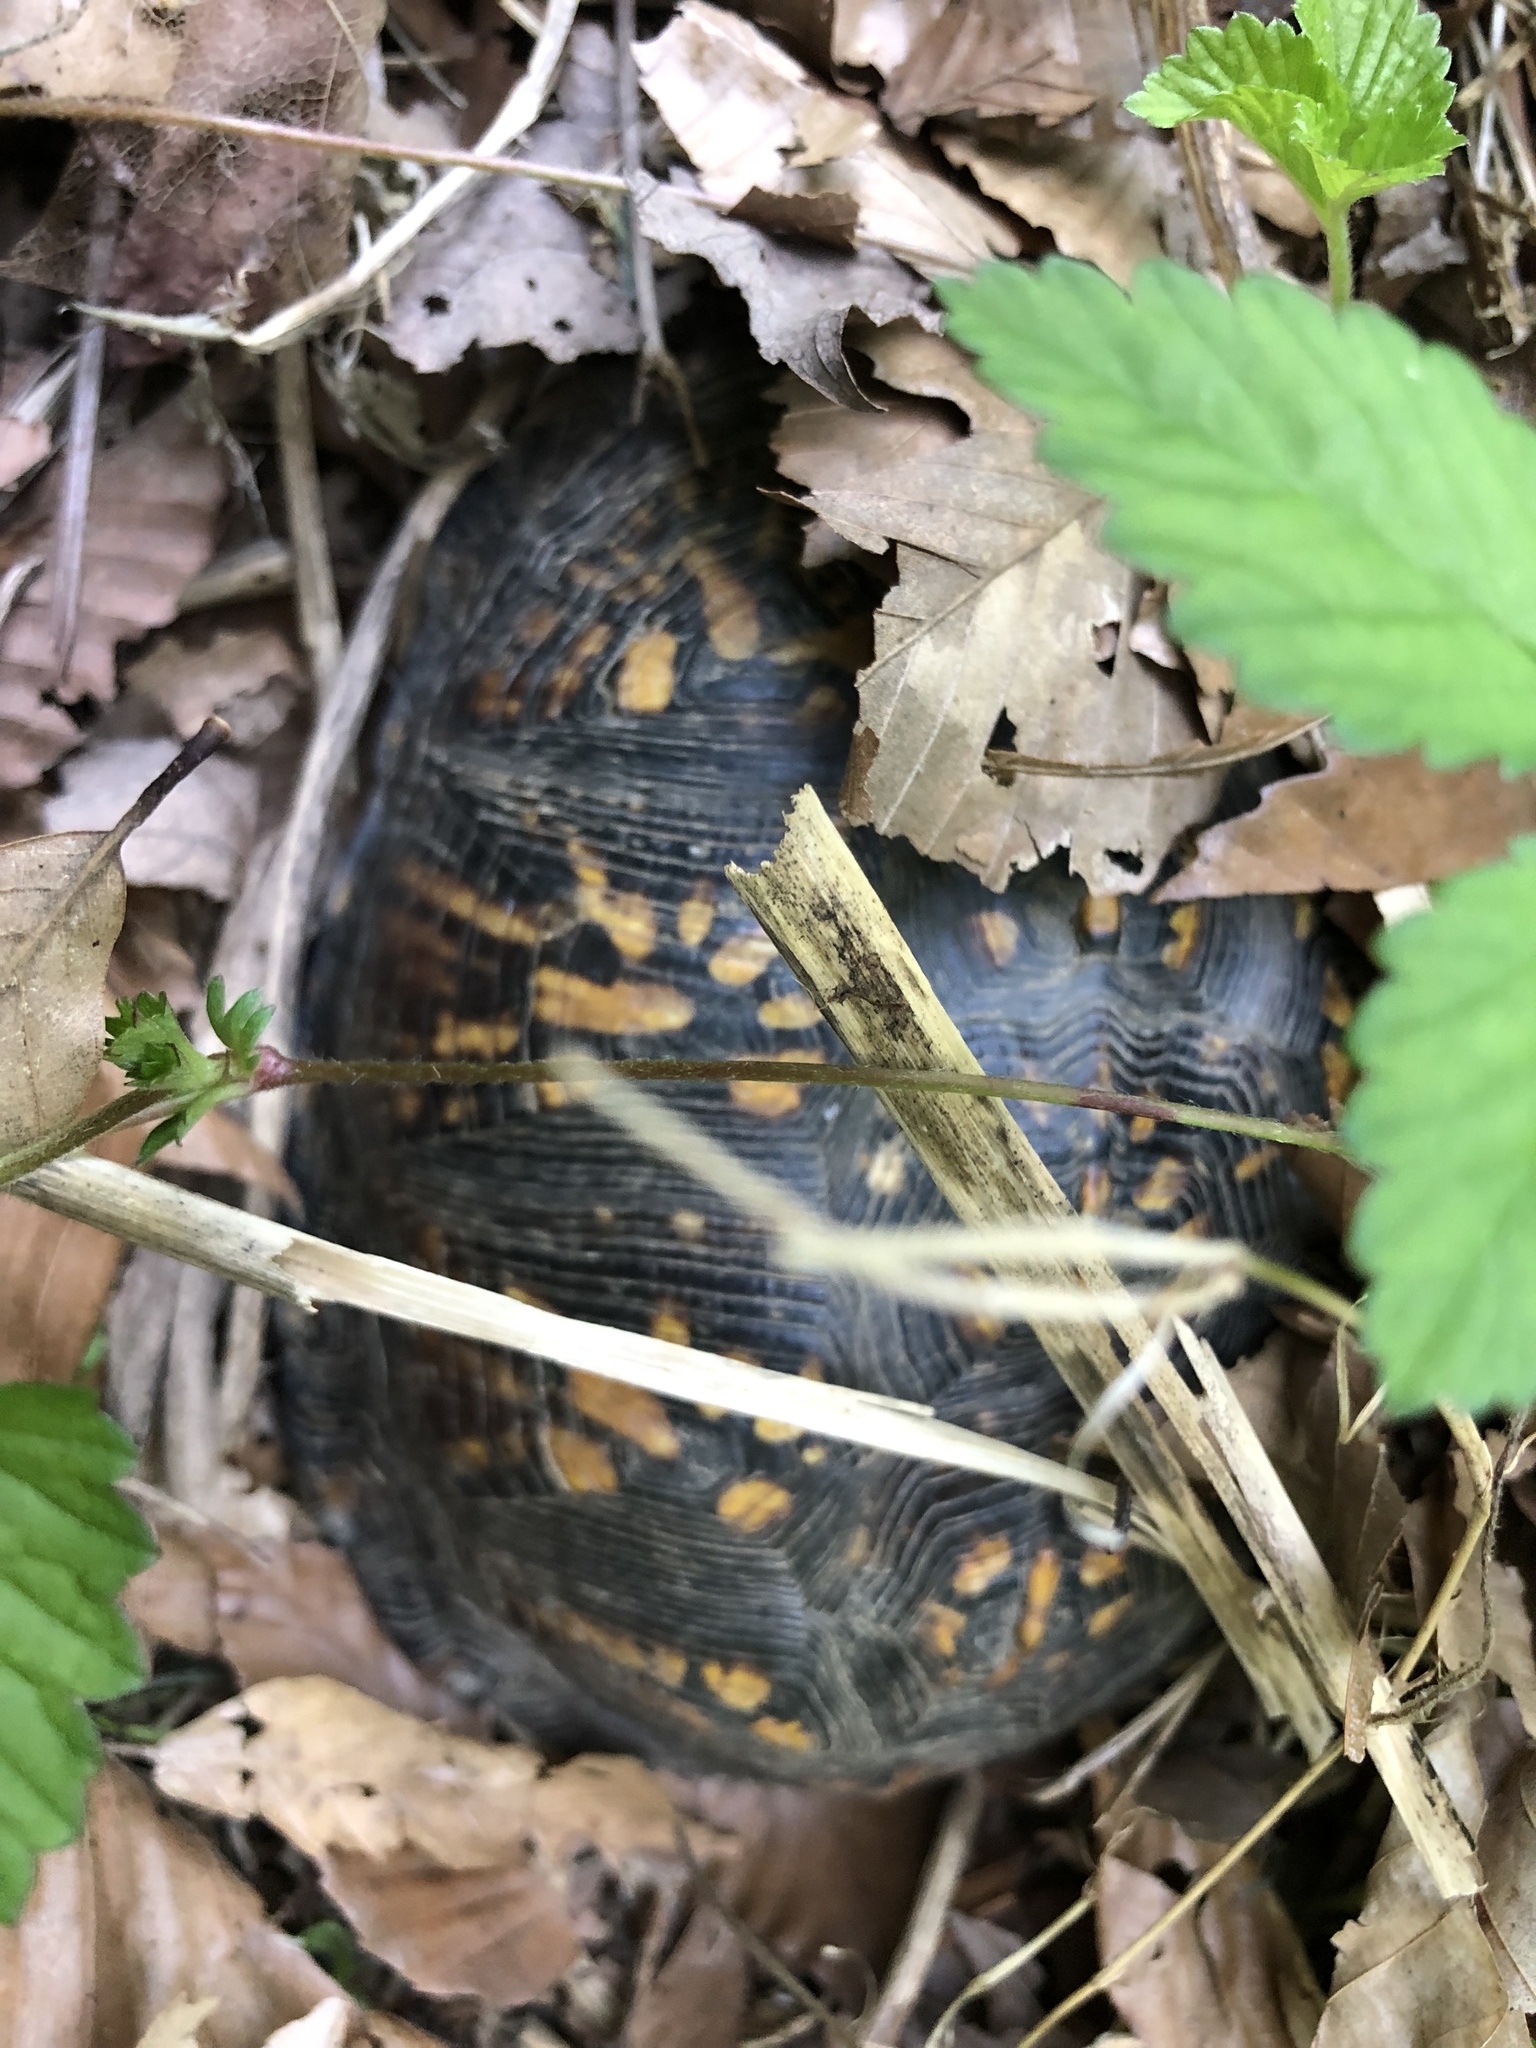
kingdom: Animalia
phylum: Chordata
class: Testudines
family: Emydidae
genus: Terrapene
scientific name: Terrapene carolina
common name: Common box turtle
